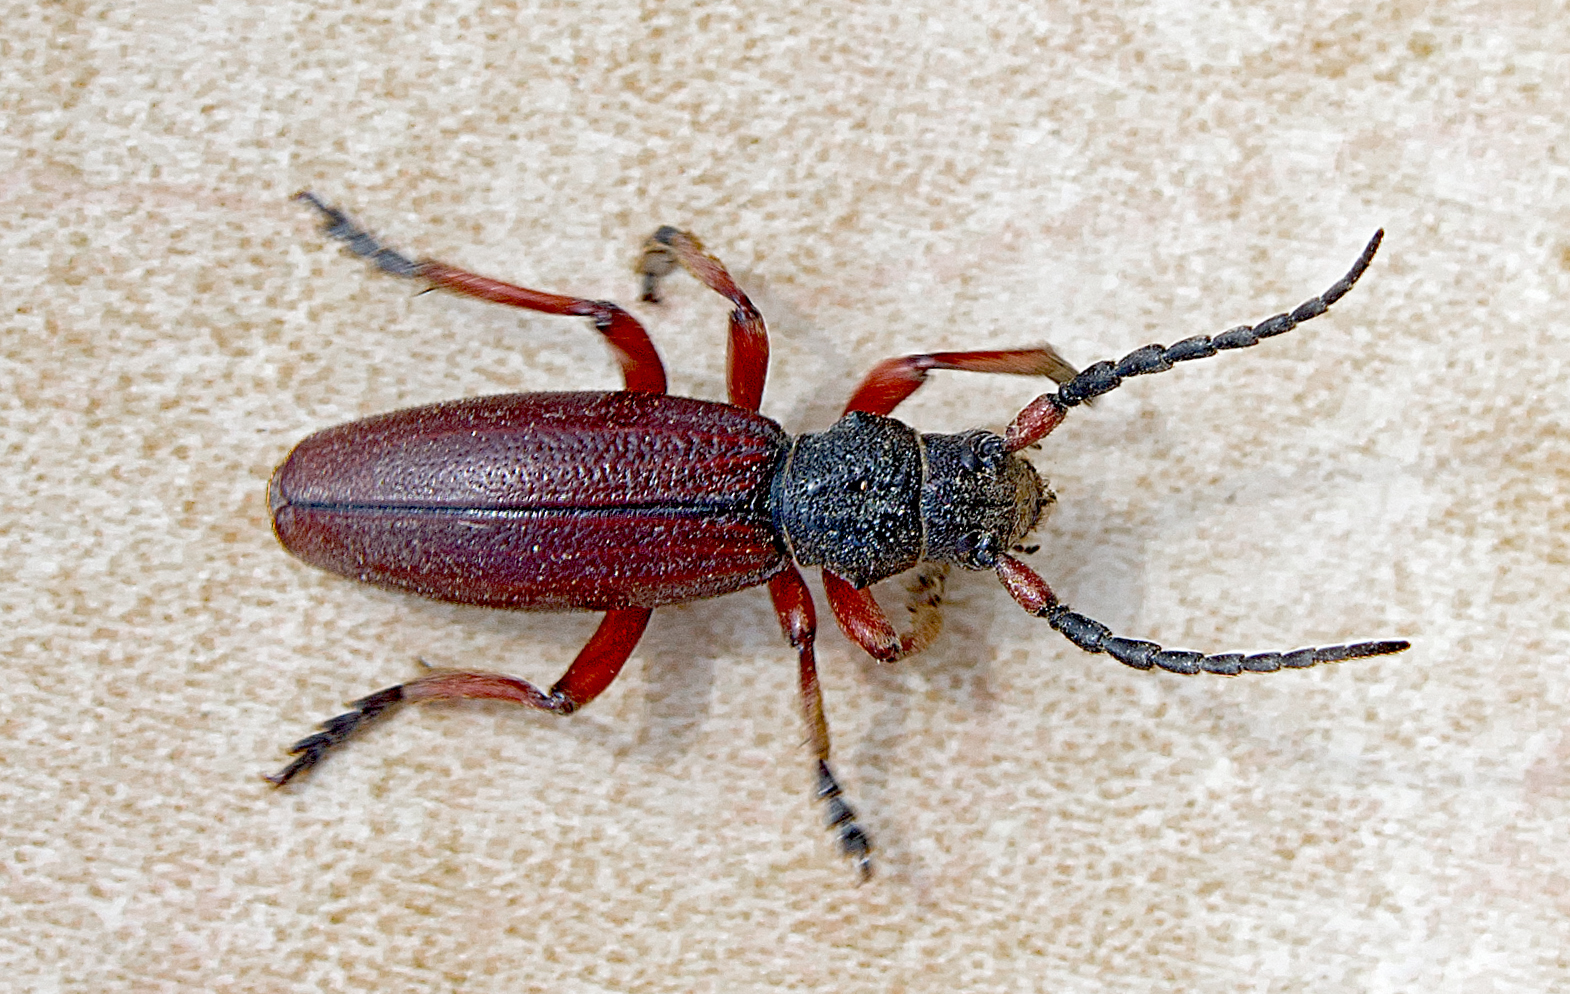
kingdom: Animalia
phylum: Arthropoda
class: Insecta
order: Coleoptera
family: Cerambycidae
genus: Dorcadion
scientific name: Dorcadion fulvum
